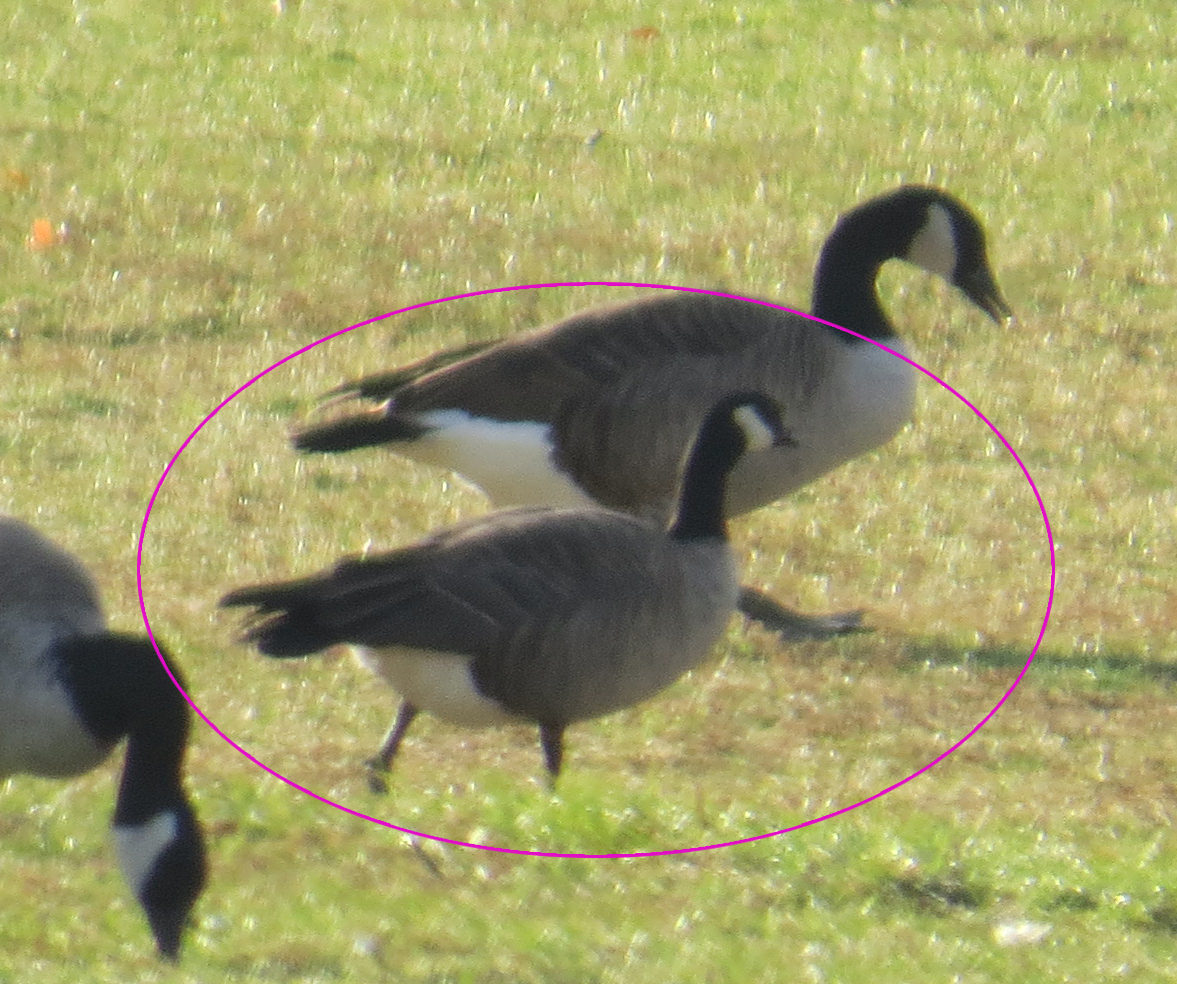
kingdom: Animalia
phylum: Chordata
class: Aves
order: Anseriformes
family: Anatidae
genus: Branta
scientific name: Branta hutchinsii
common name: Cackling goose
